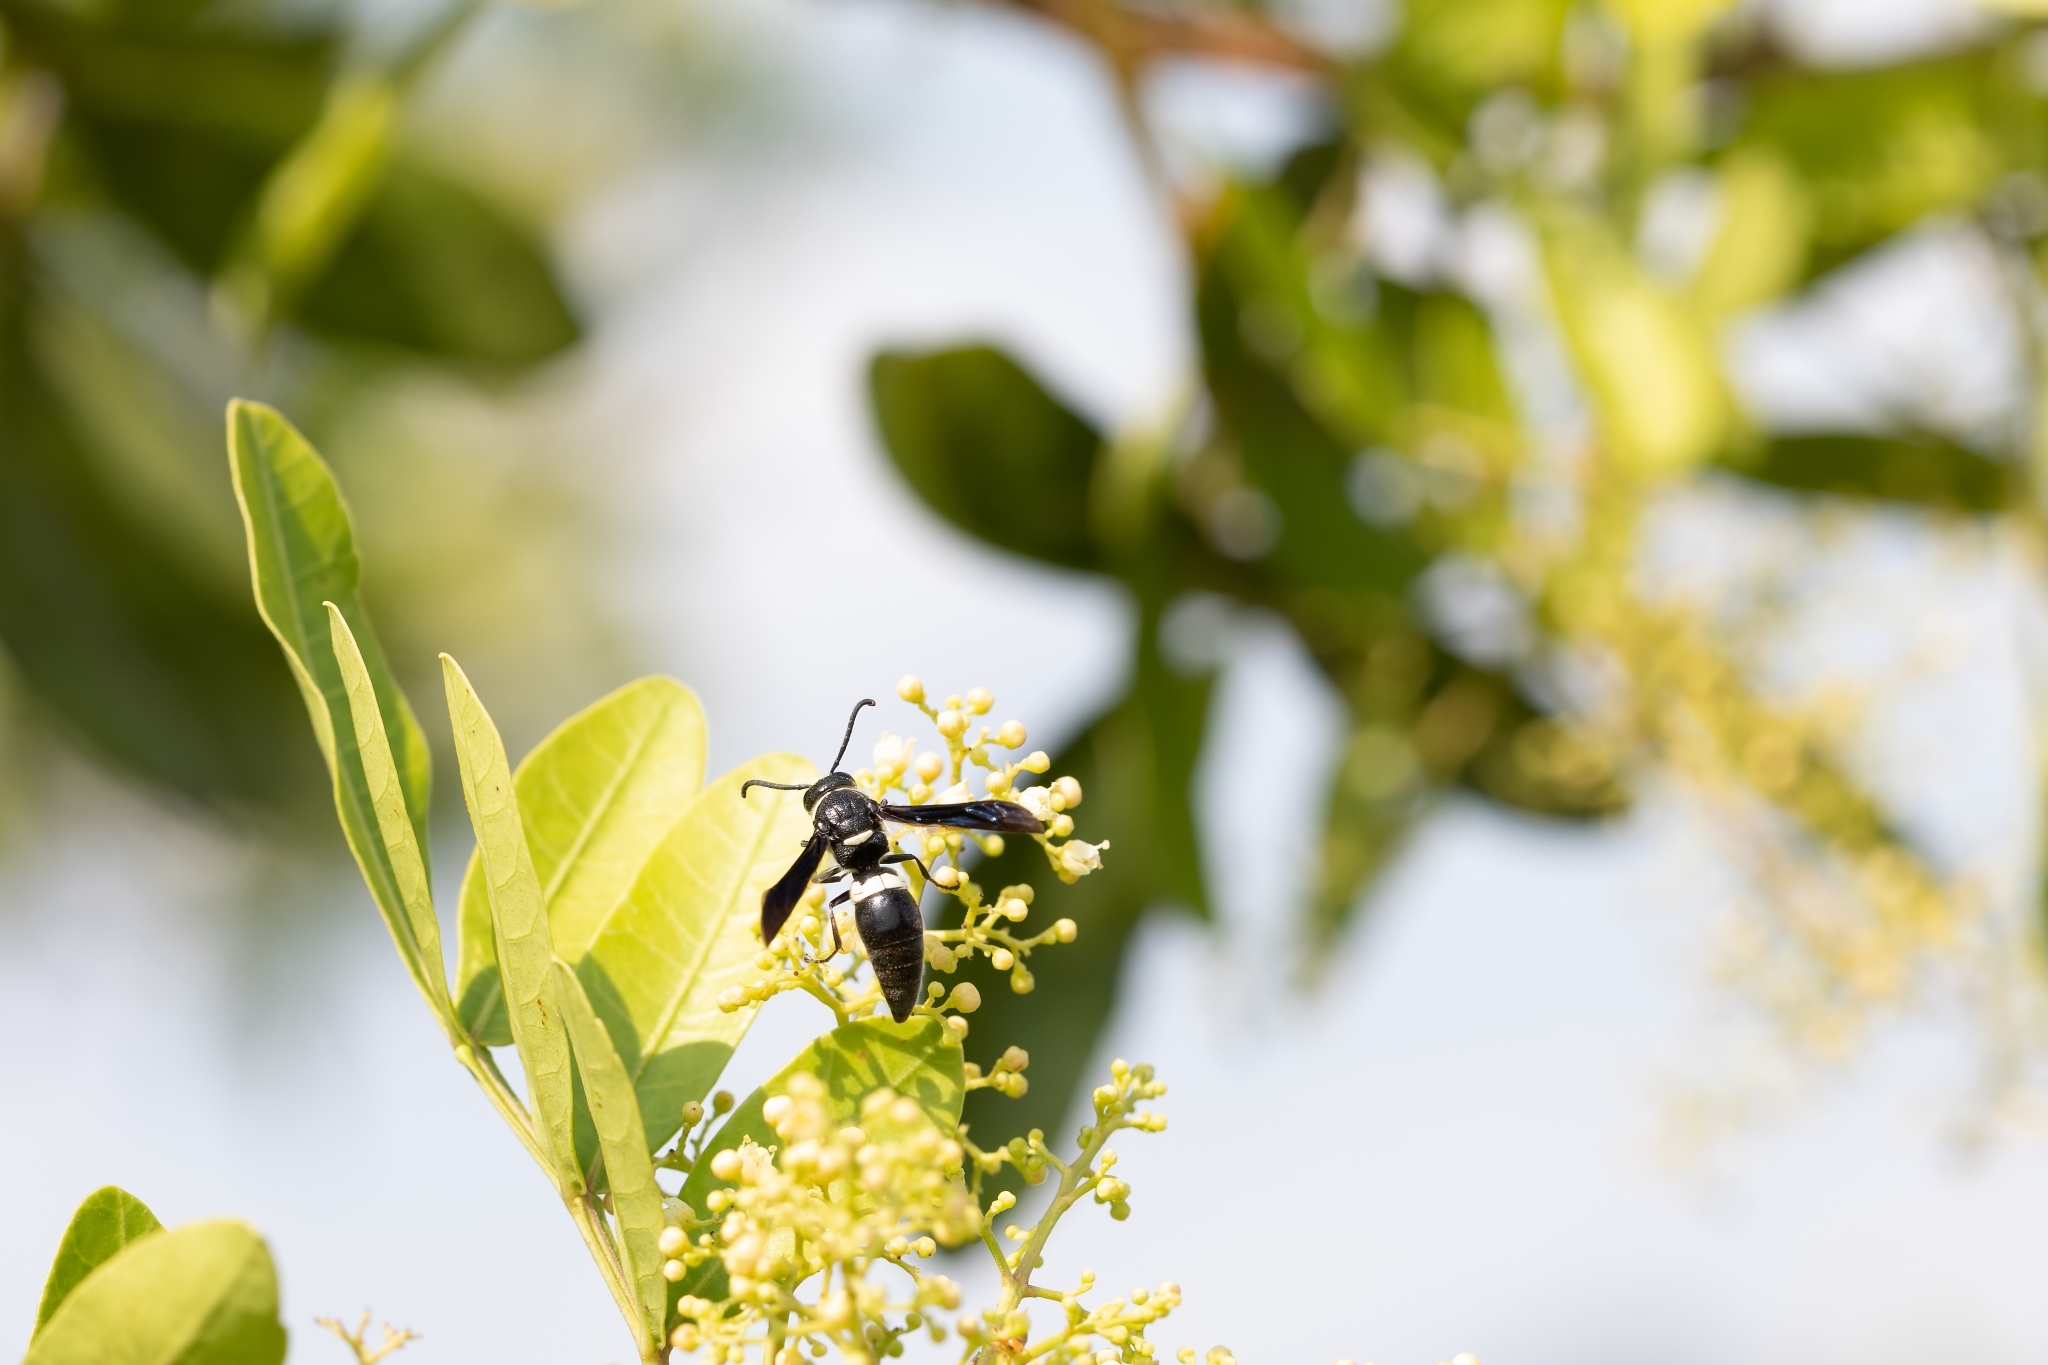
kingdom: Animalia
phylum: Arthropoda
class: Insecta
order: Hymenoptera
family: Eumenidae
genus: Monobia
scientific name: Monobia quadridens
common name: Four-toothed mason wasp
